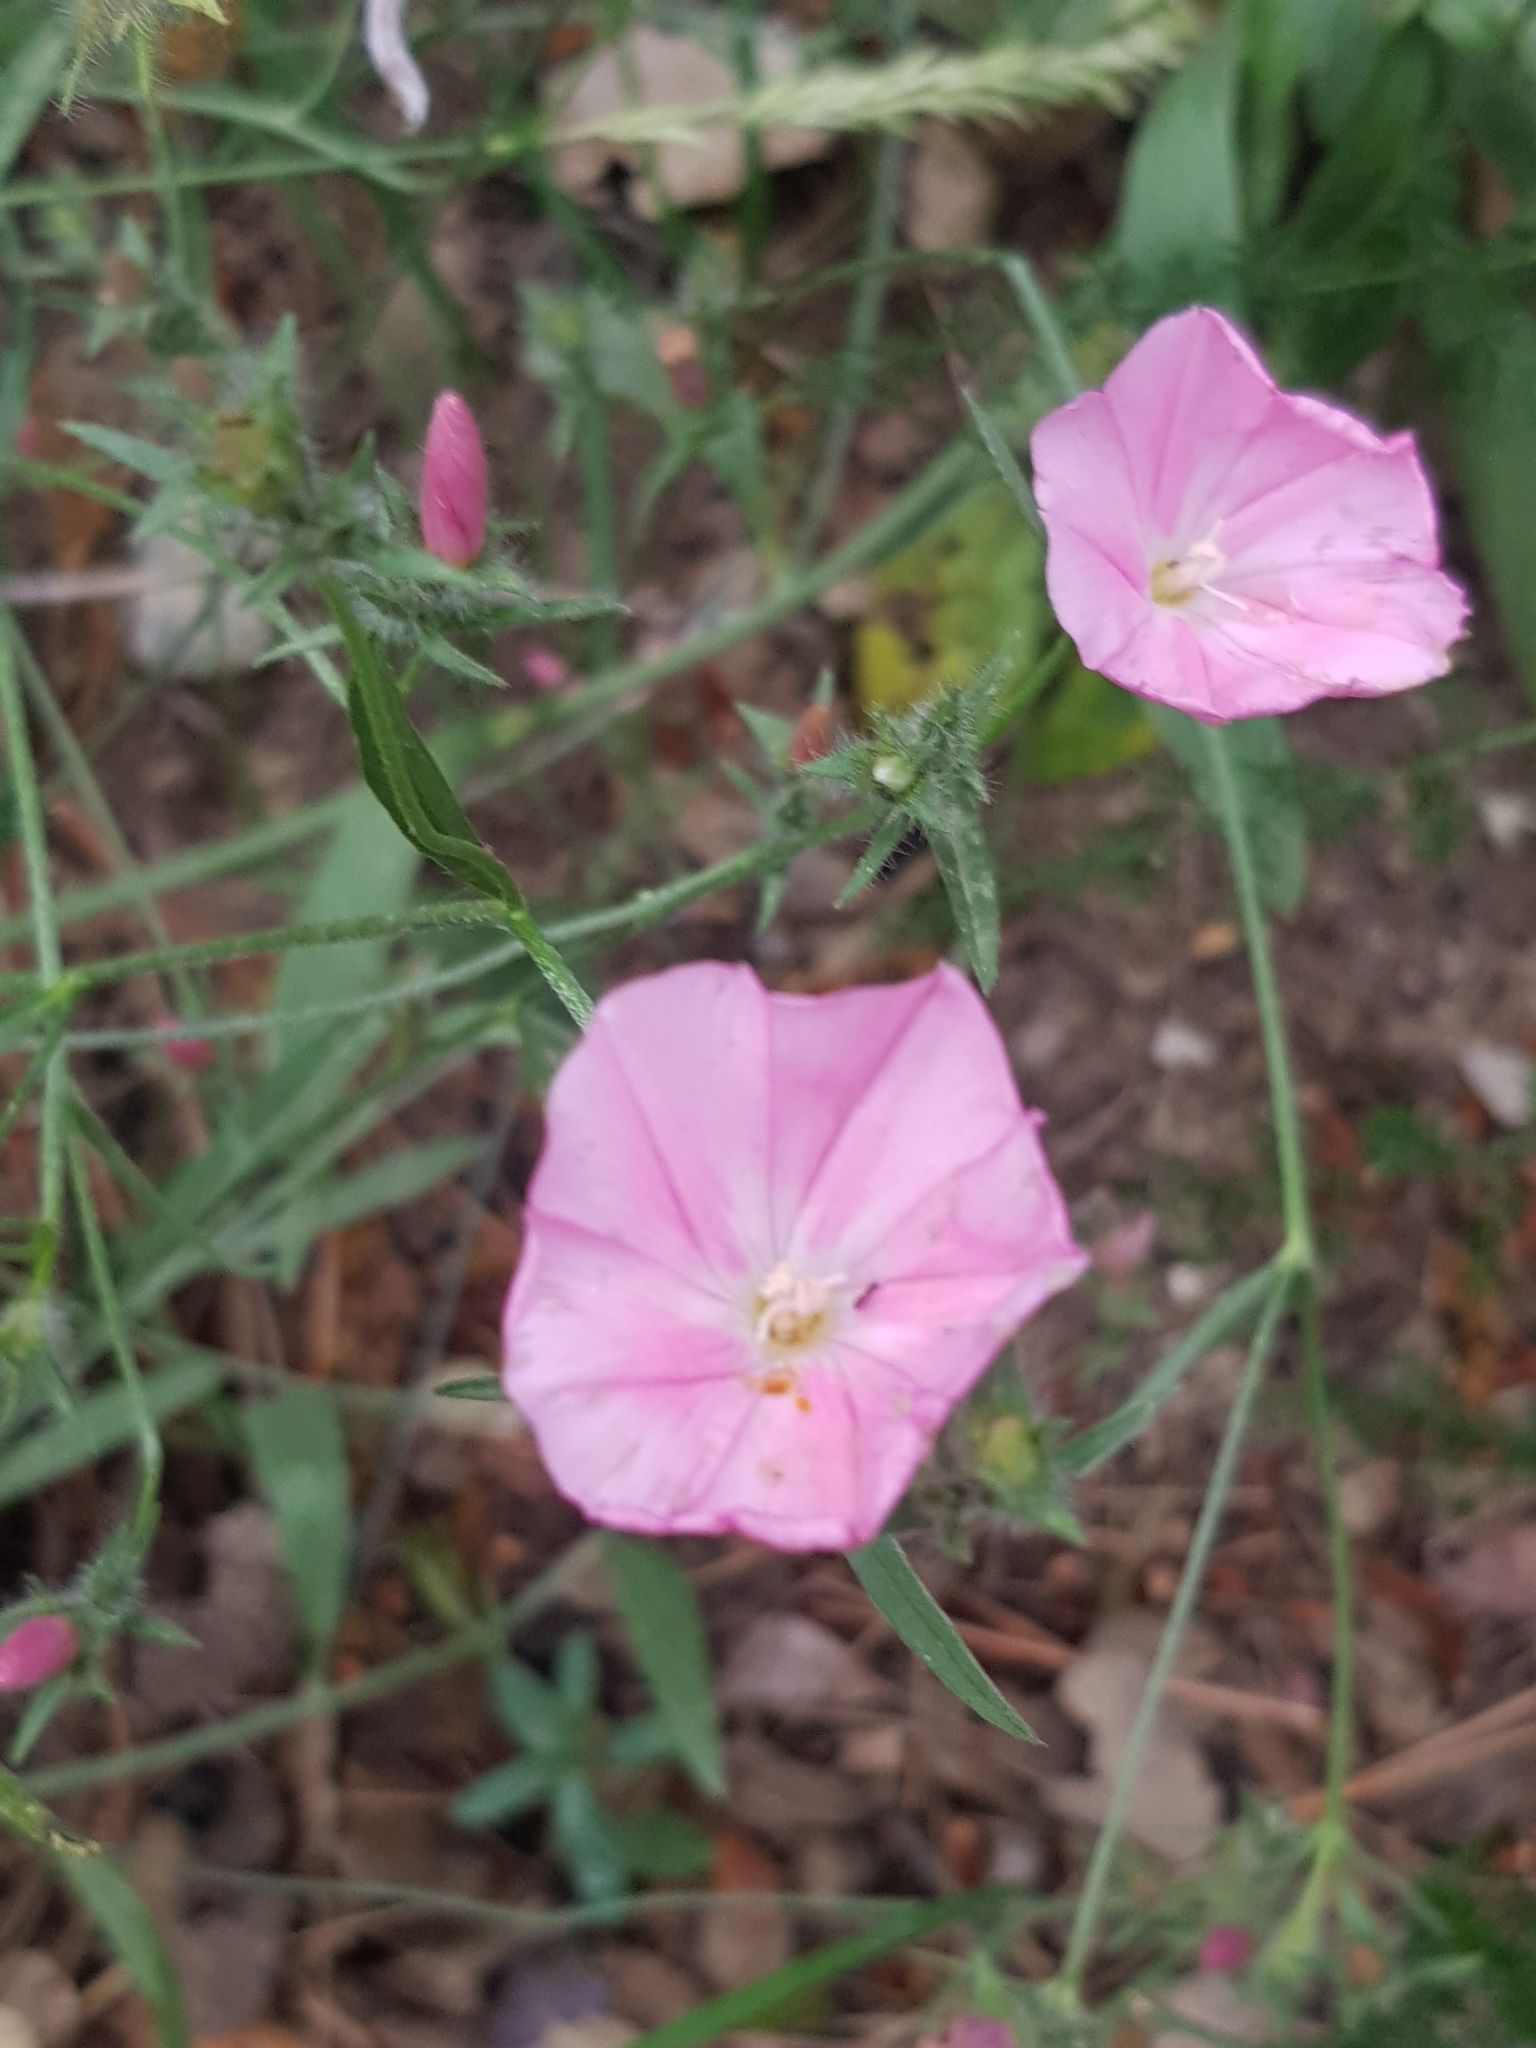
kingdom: Plantae
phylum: Tracheophyta
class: Magnoliopsida
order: Solanales
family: Convolvulaceae
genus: Convolvulus
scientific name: Convolvulus cantabrica
